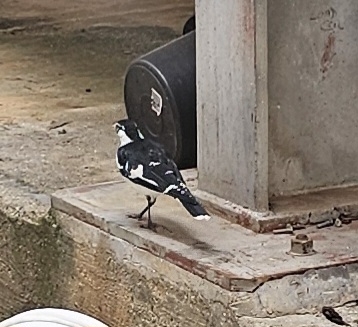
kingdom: Animalia
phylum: Chordata
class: Aves
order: Passeriformes
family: Monarchidae
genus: Grallina
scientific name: Grallina cyanoleuca
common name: Magpie-lark
